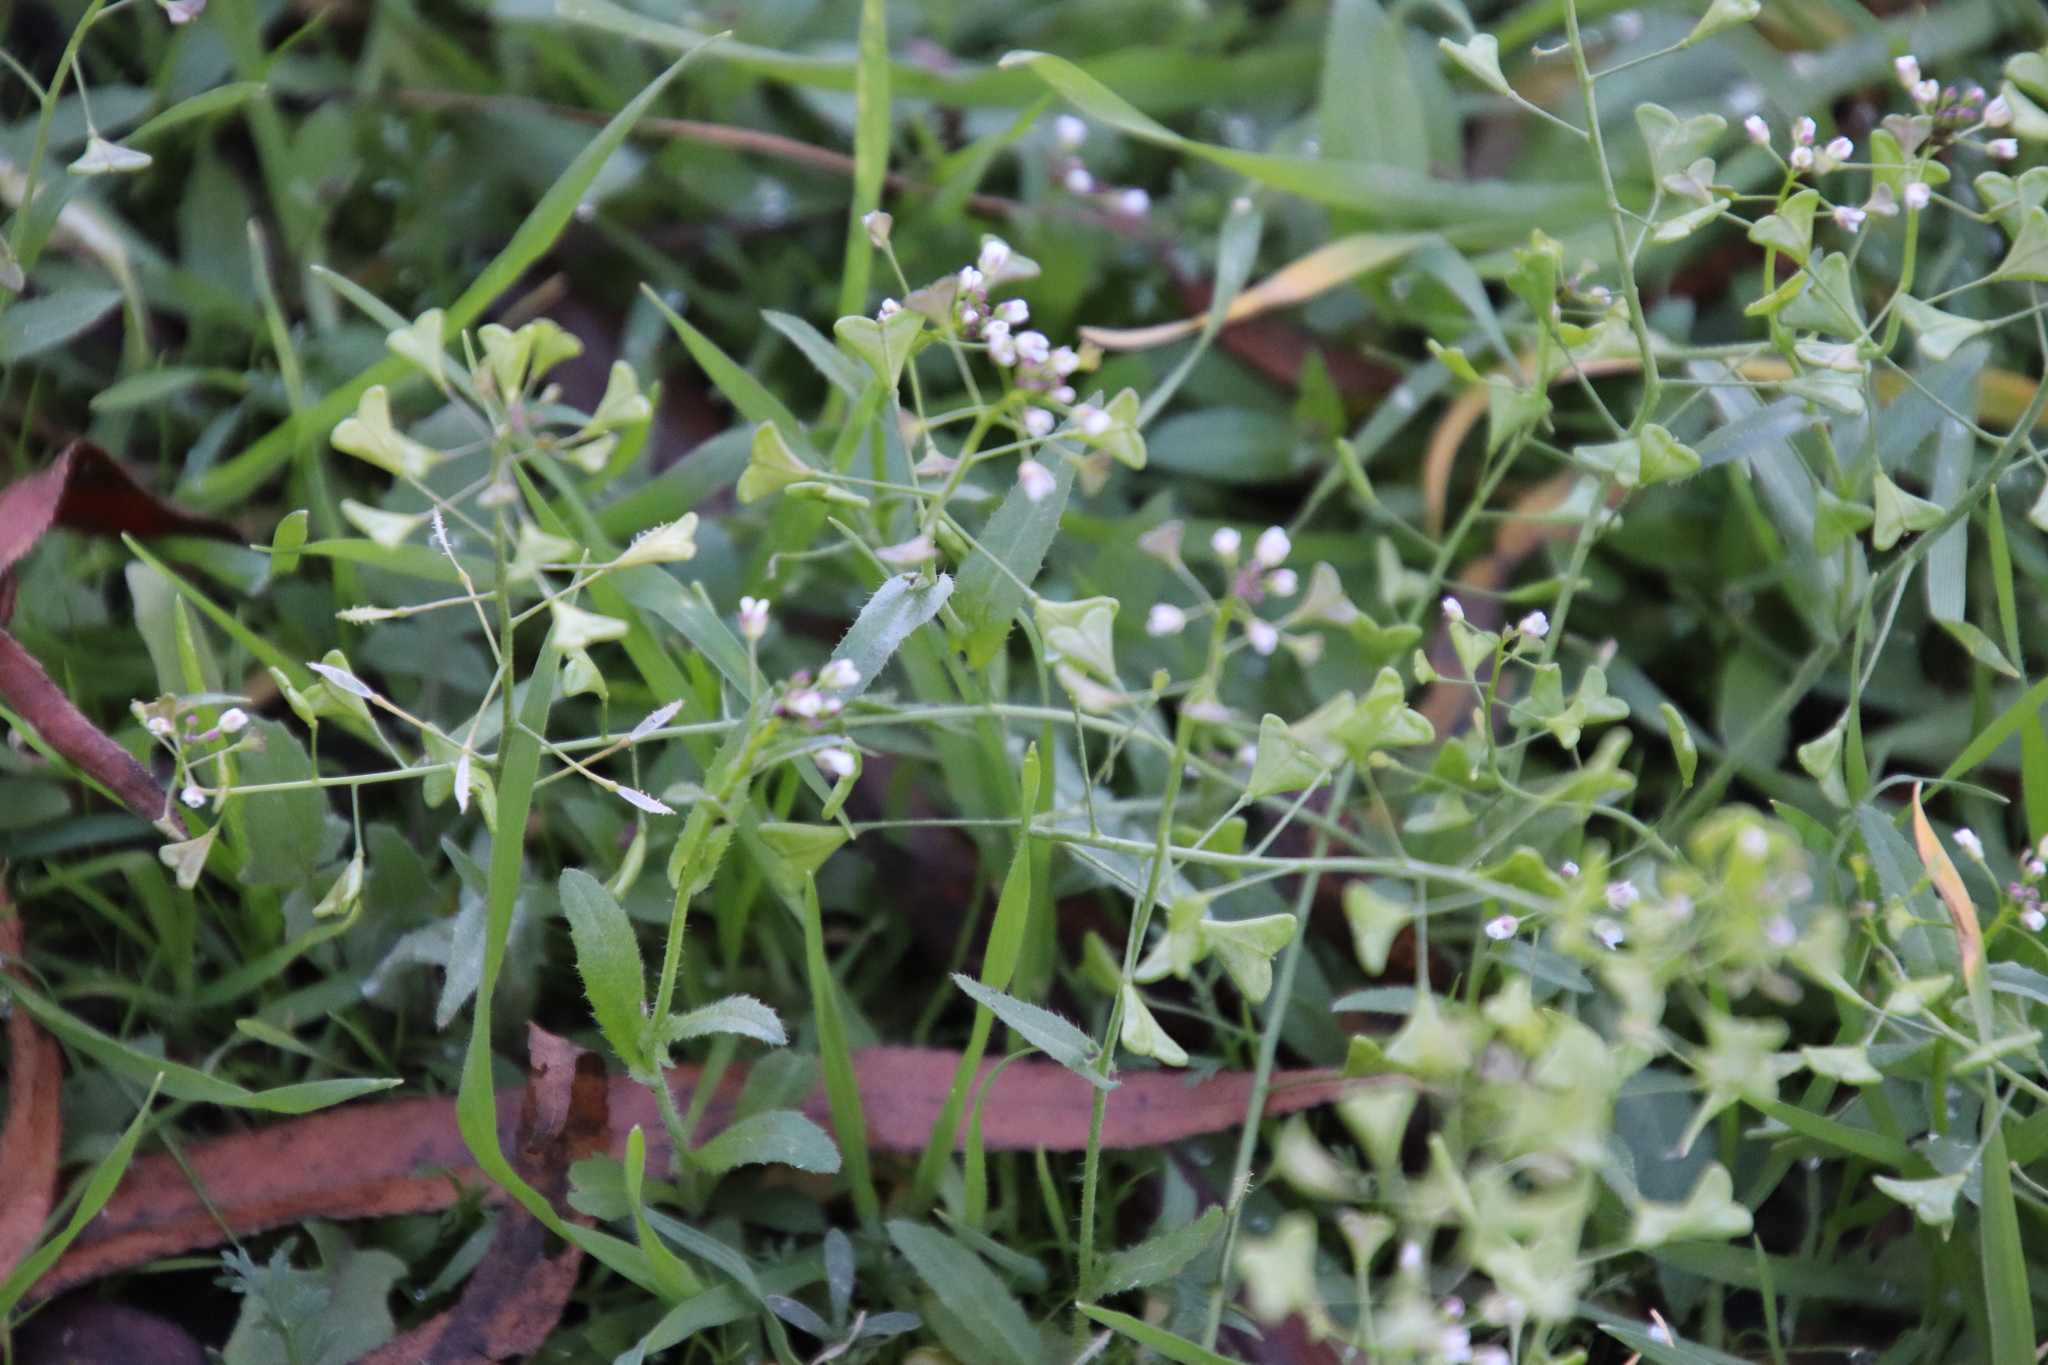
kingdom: Plantae
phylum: Tracheophyta
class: Magnoliopsida
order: Brassicales
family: Brassicaceae
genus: Capsella
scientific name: Capsella bursa-pastoris
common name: Shepherd's purse
